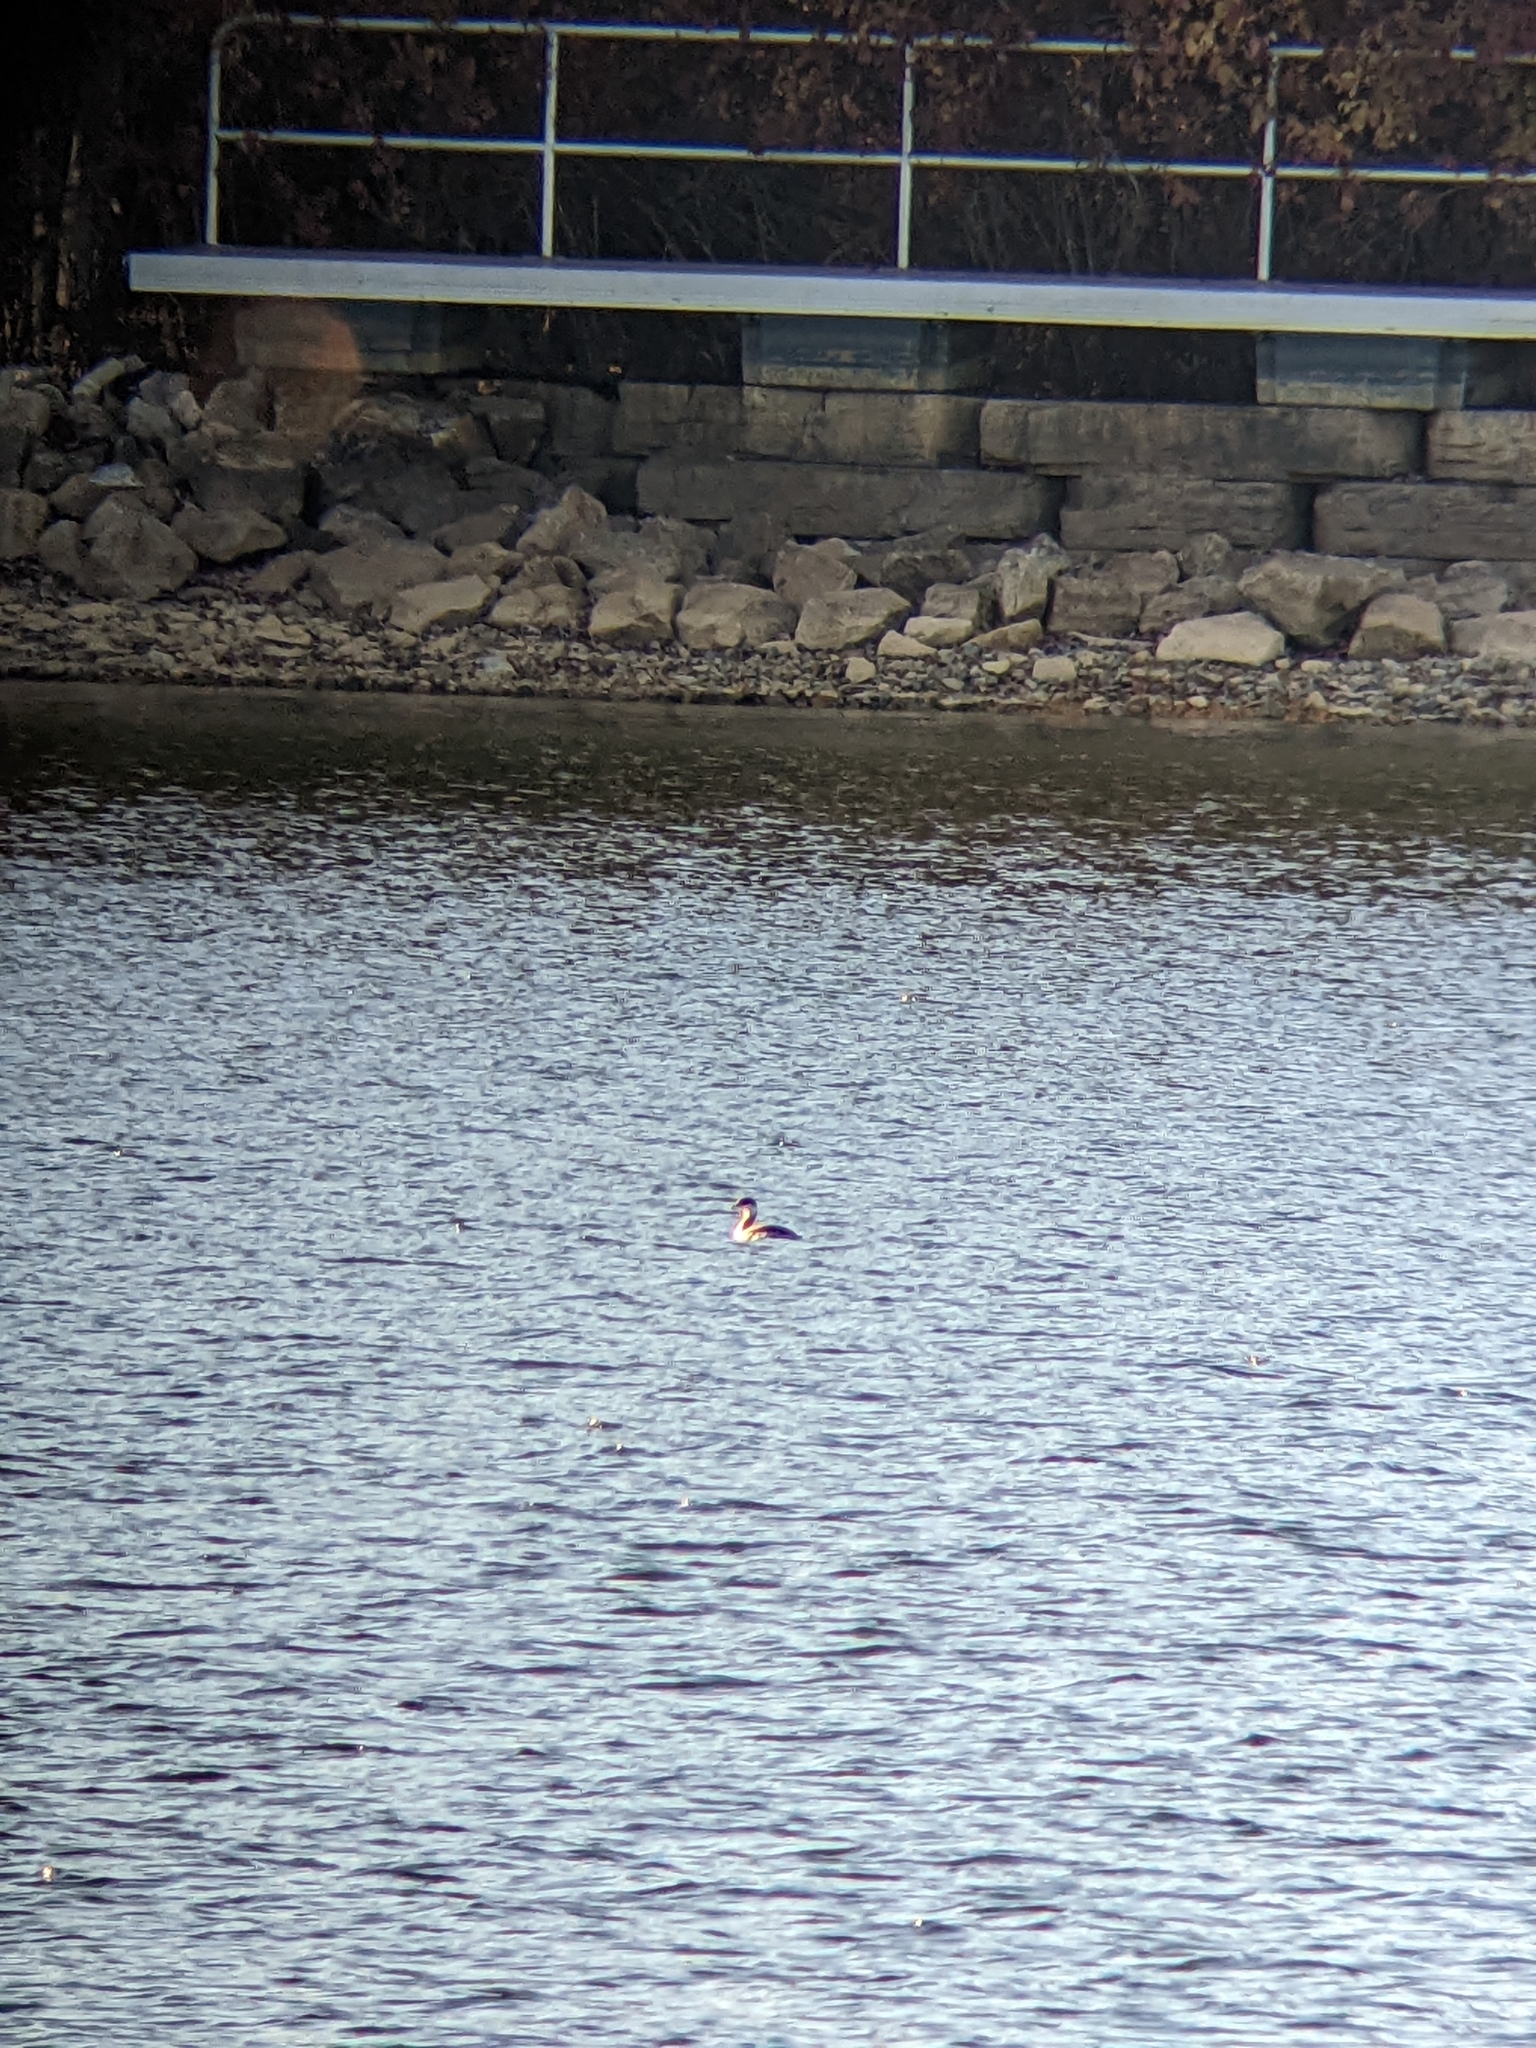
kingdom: Animalia
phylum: Chordata
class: Aves
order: Podicipediformes
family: Podicipedidae
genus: Podiceps
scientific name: Podiceps auritus
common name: Horned grebe
